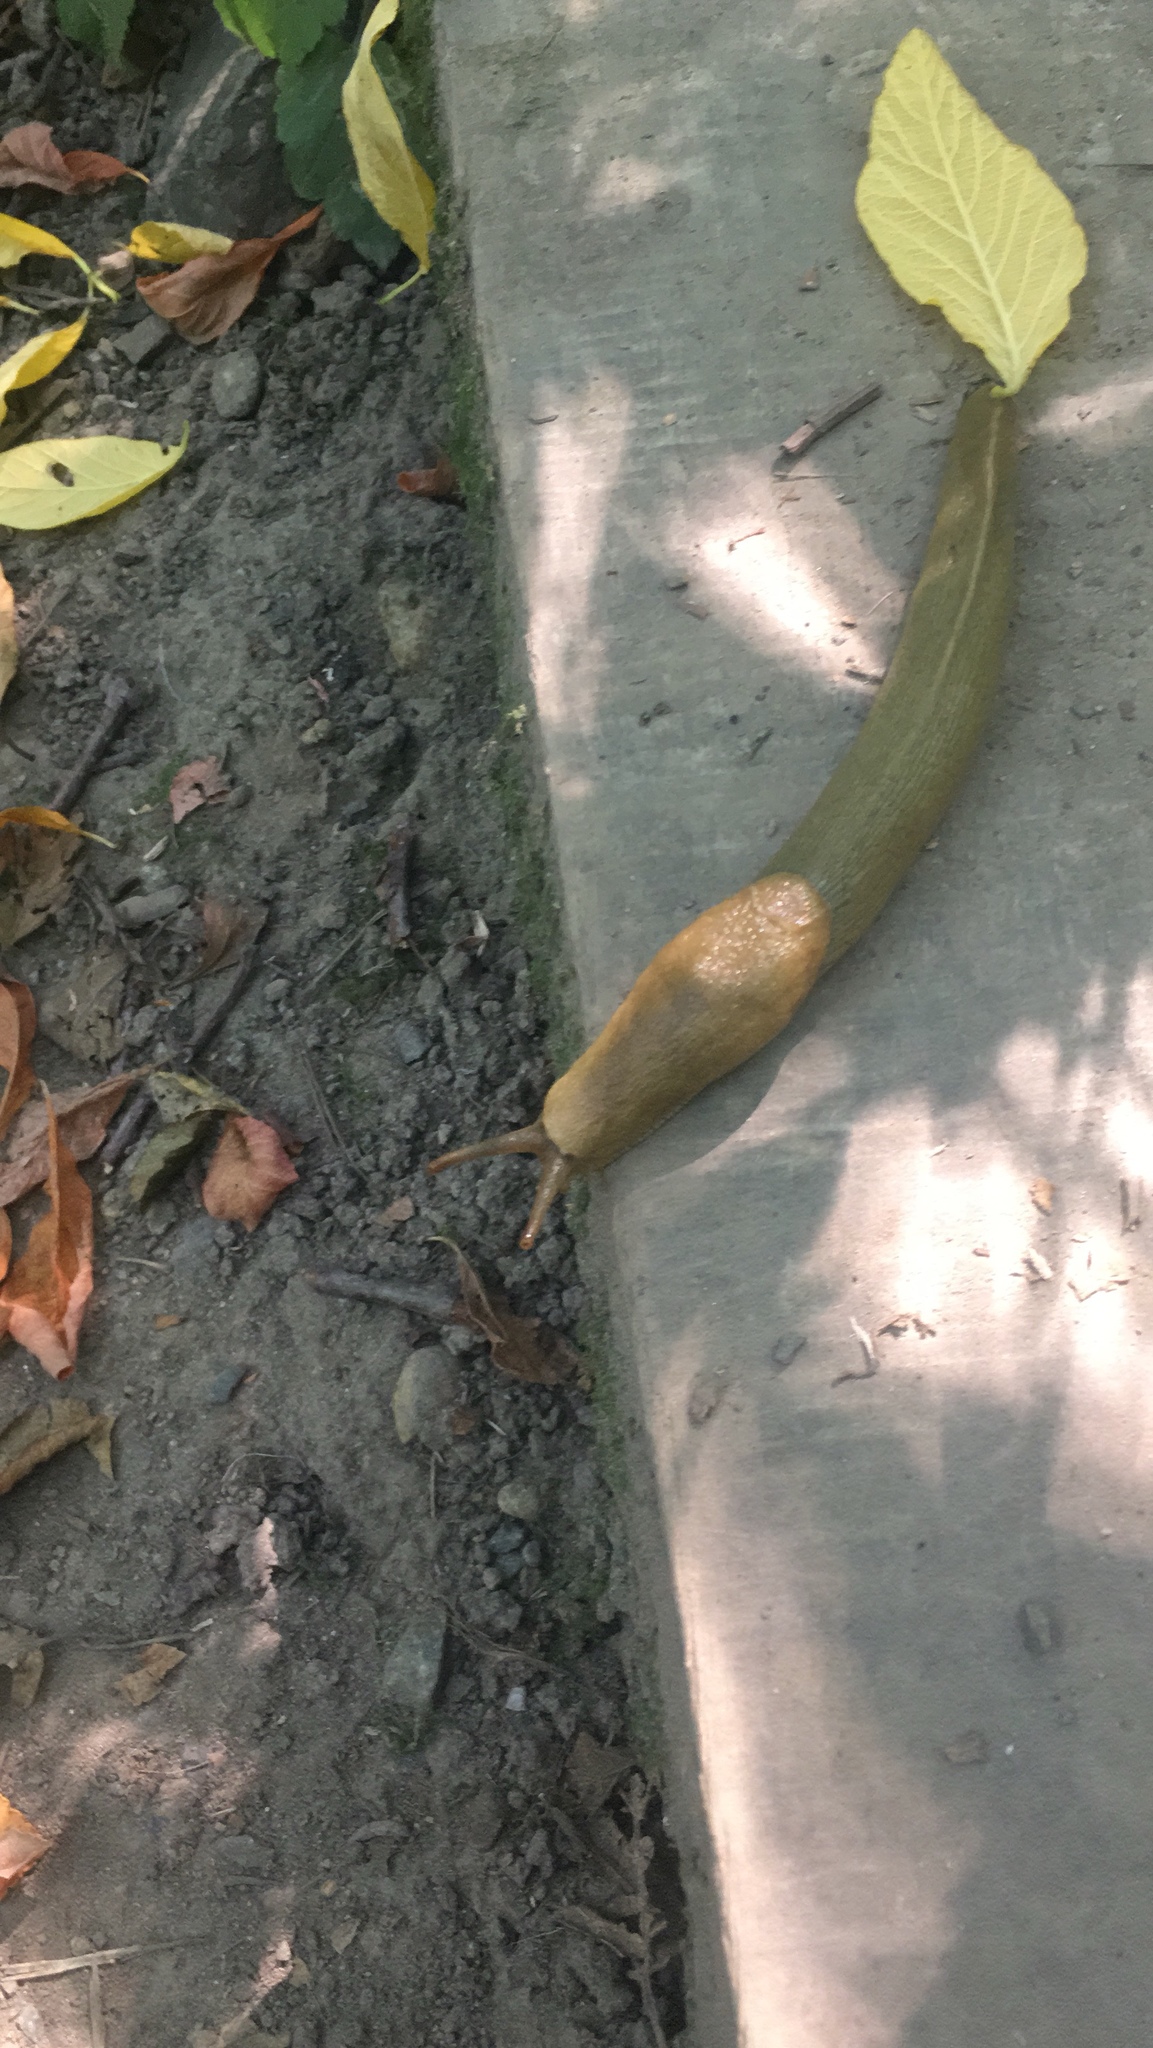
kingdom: Animalia
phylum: Mollusca
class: Gastropoda
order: Stylommatophora
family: Ariolimacidae
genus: Ariolimax
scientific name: Ariolimax columbianus
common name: Pacific banana slug
